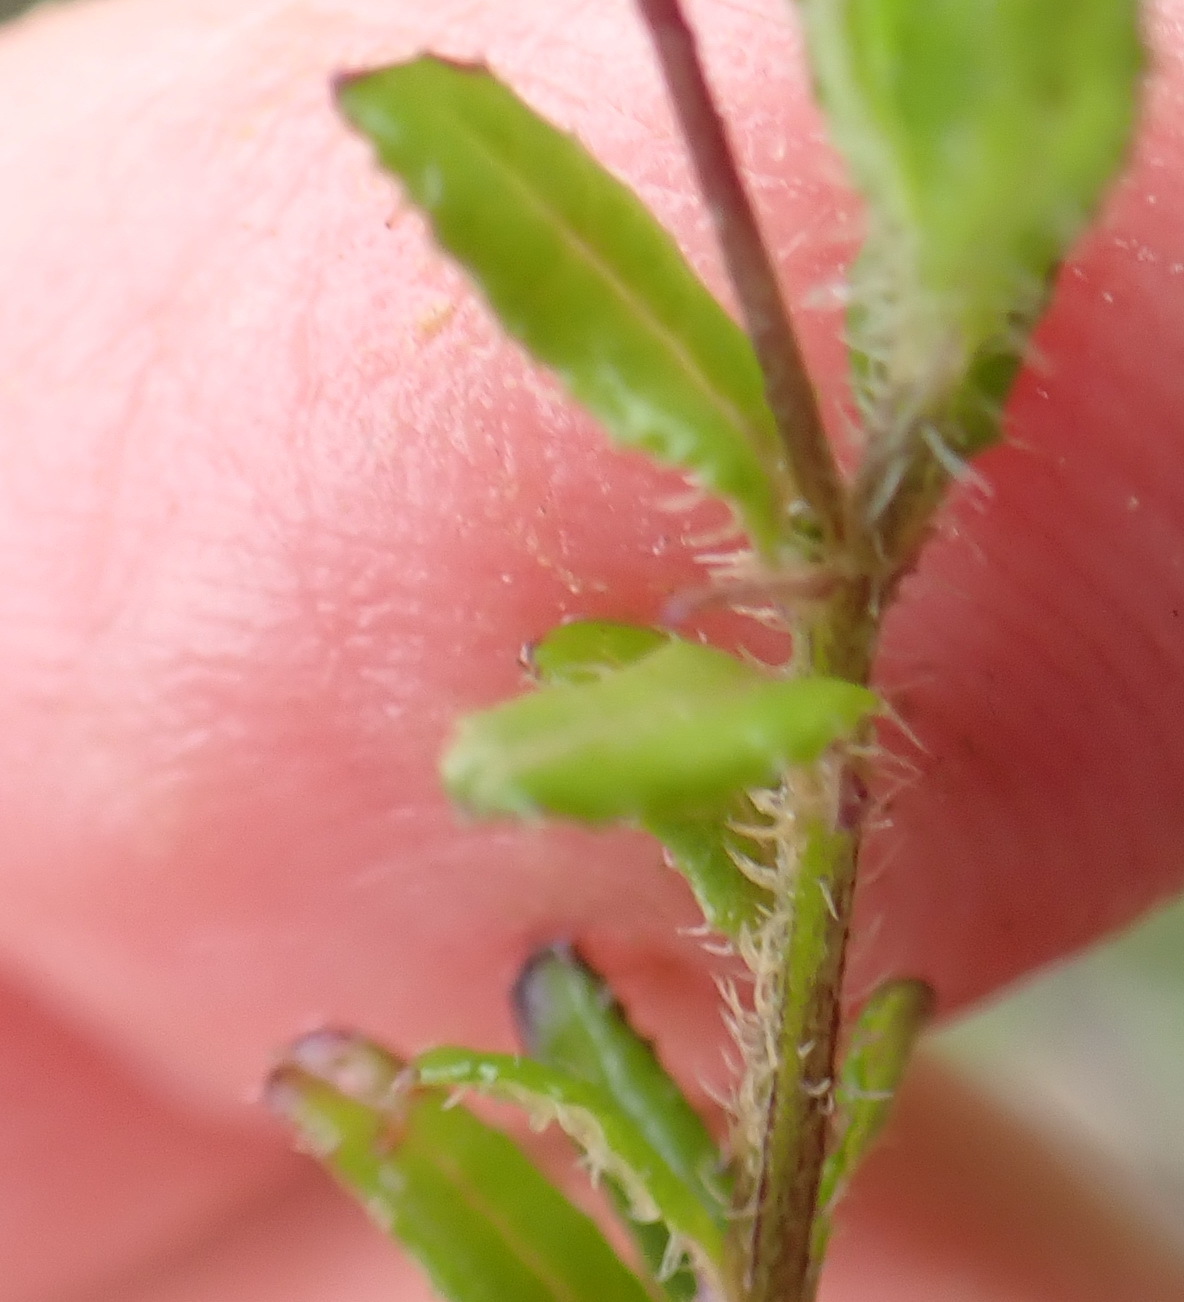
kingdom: Plantae
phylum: Tracheophyta
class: Magnoliopsida
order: Asterales
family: Campanulaceae
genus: Lobelia
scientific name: Lobelia neglecta
